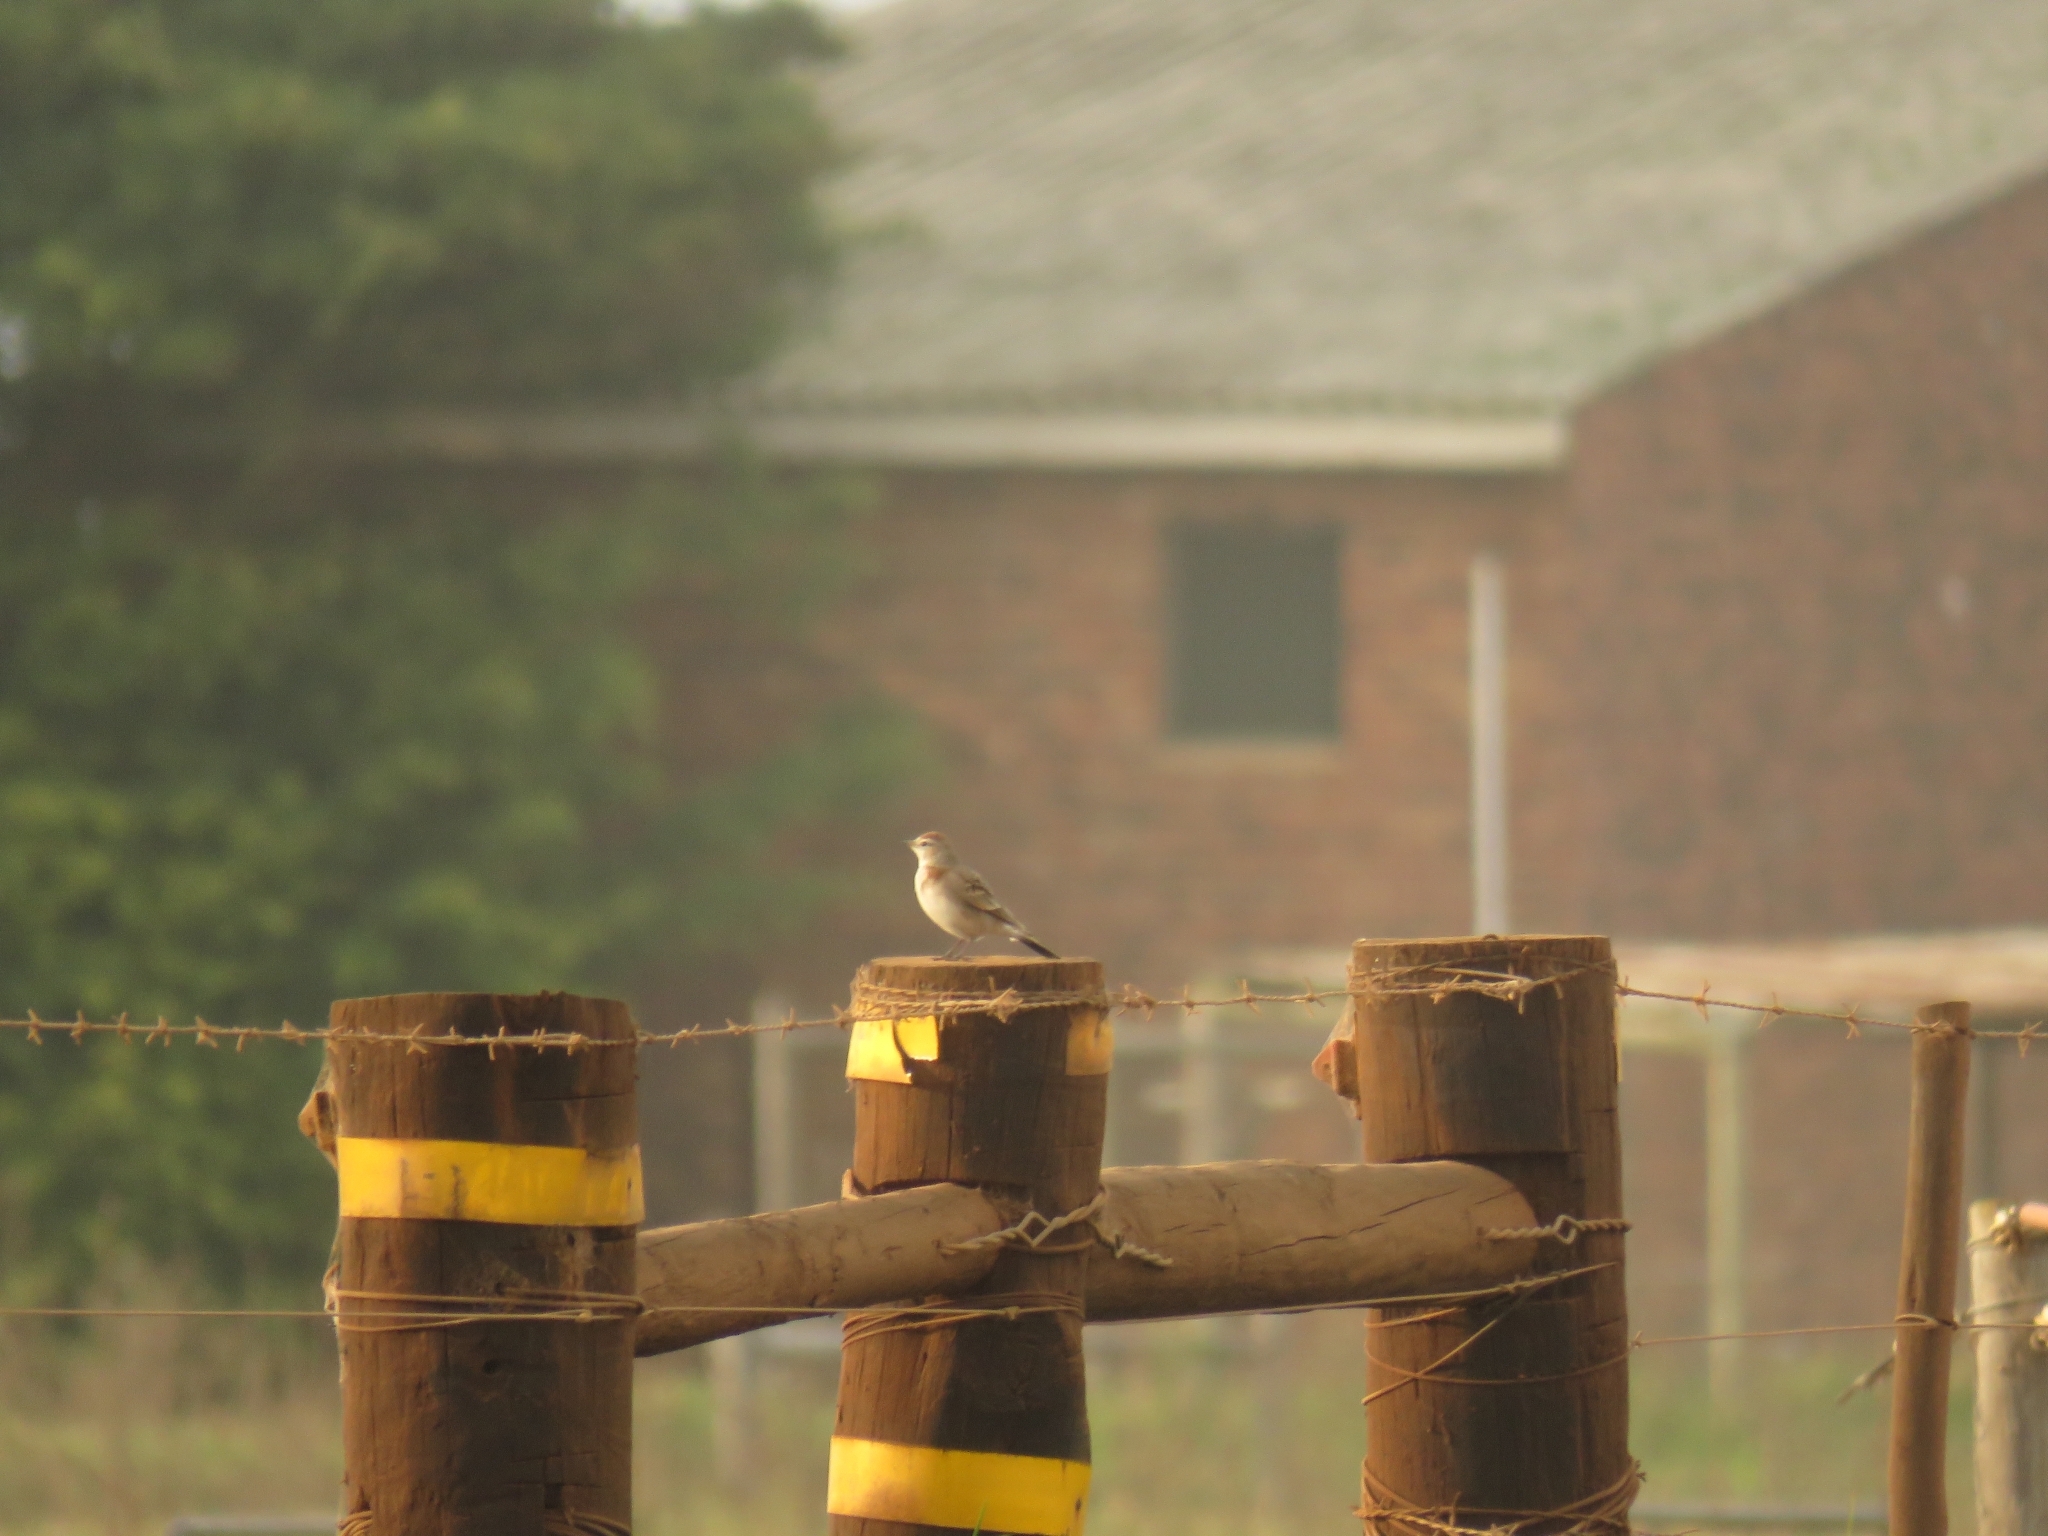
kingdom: Animalia
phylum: Chordata
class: Aves
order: Passeriformes
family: Alaudidae
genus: Calandrella
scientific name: Calandrella cinerea
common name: Red-capped lark
